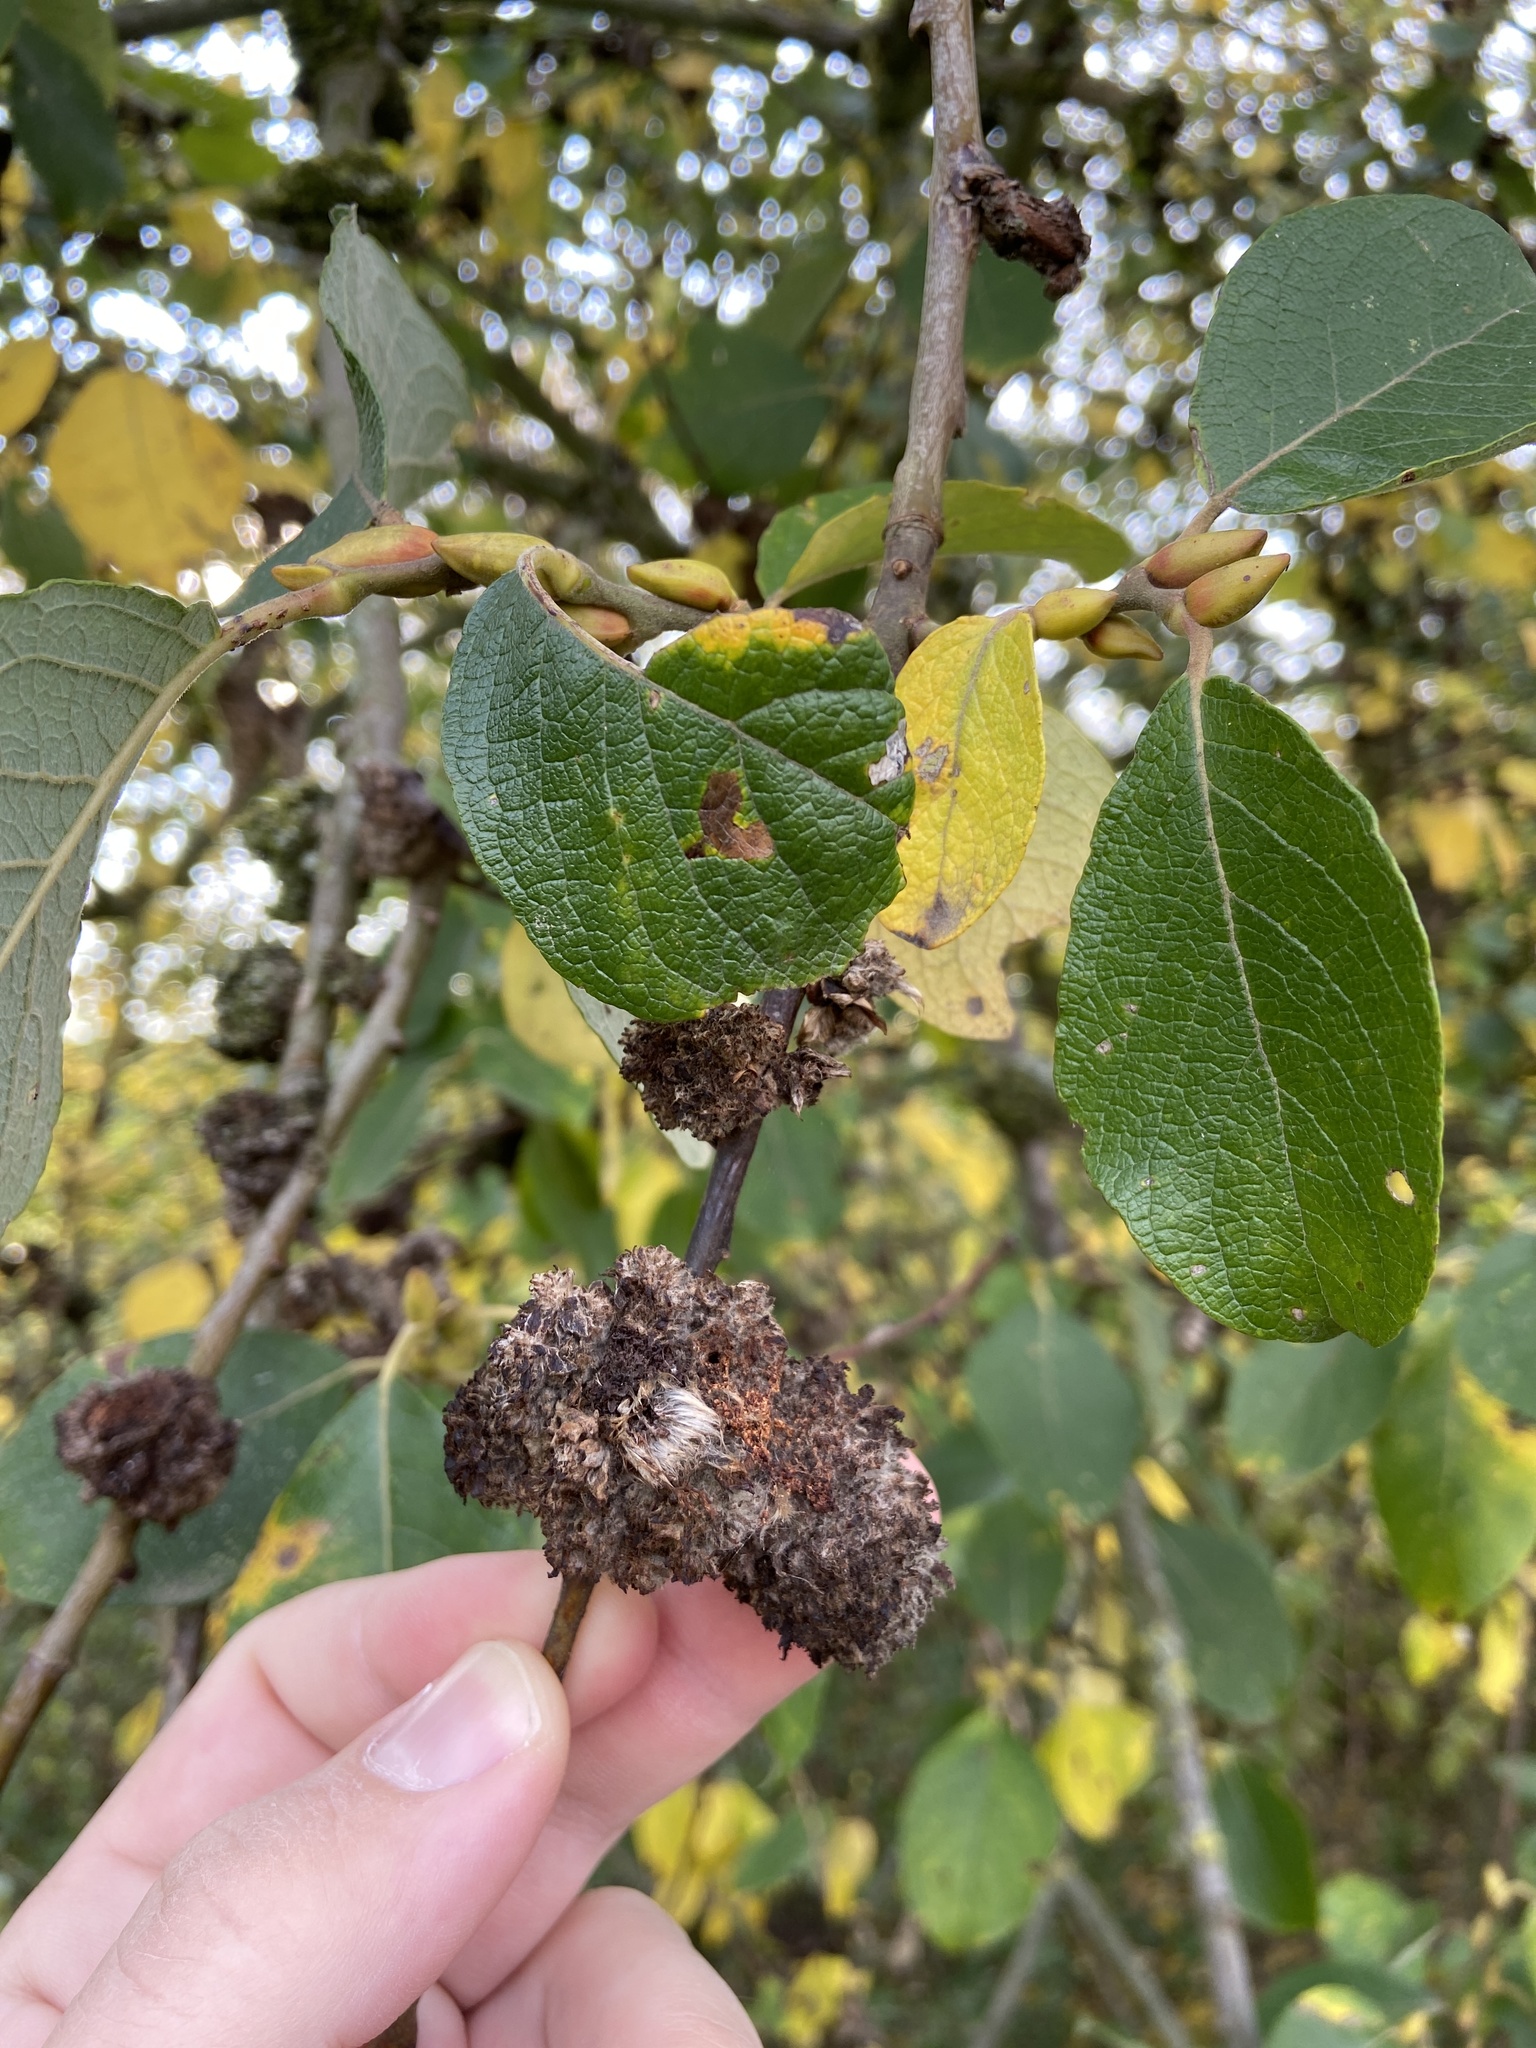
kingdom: Plantae
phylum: Tracheophyta
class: Magnoliopsida
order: Malpighiales
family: Salicaceae
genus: Salix
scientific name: Salix caprea
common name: Goat willow
